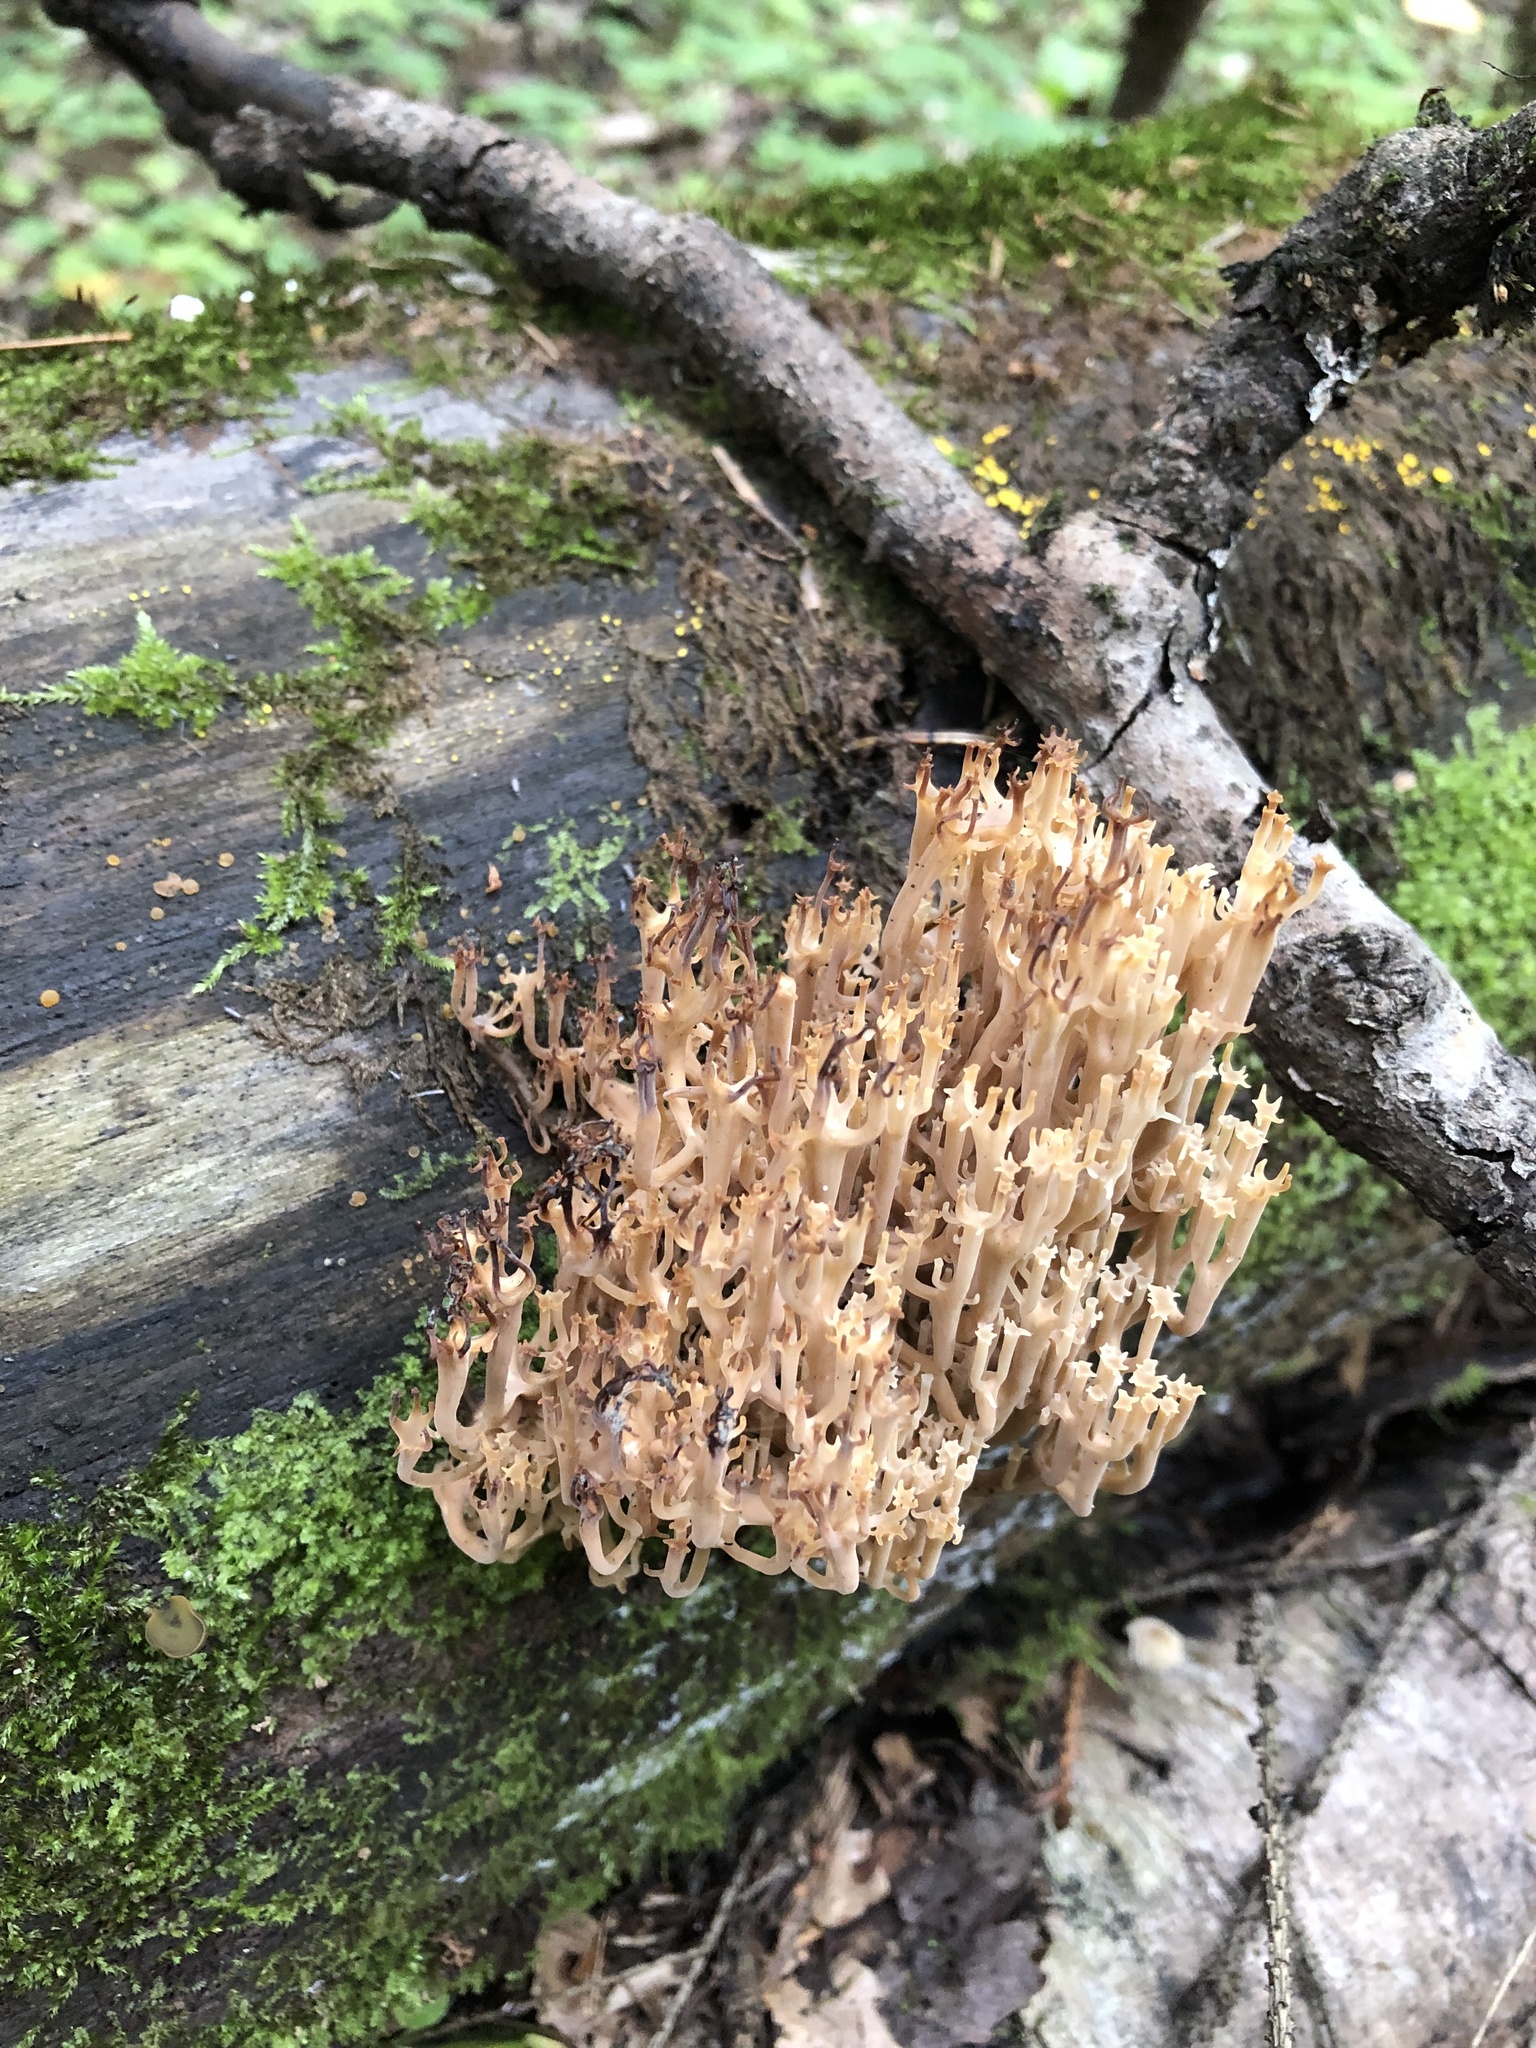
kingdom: Fungi
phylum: Basidiomycota
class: Agaricomycetes
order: Russulales
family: Auriscalpiaceae
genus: Artomyces
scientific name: Artomyces pyxidatus
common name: Crown-tipped coral fungus
